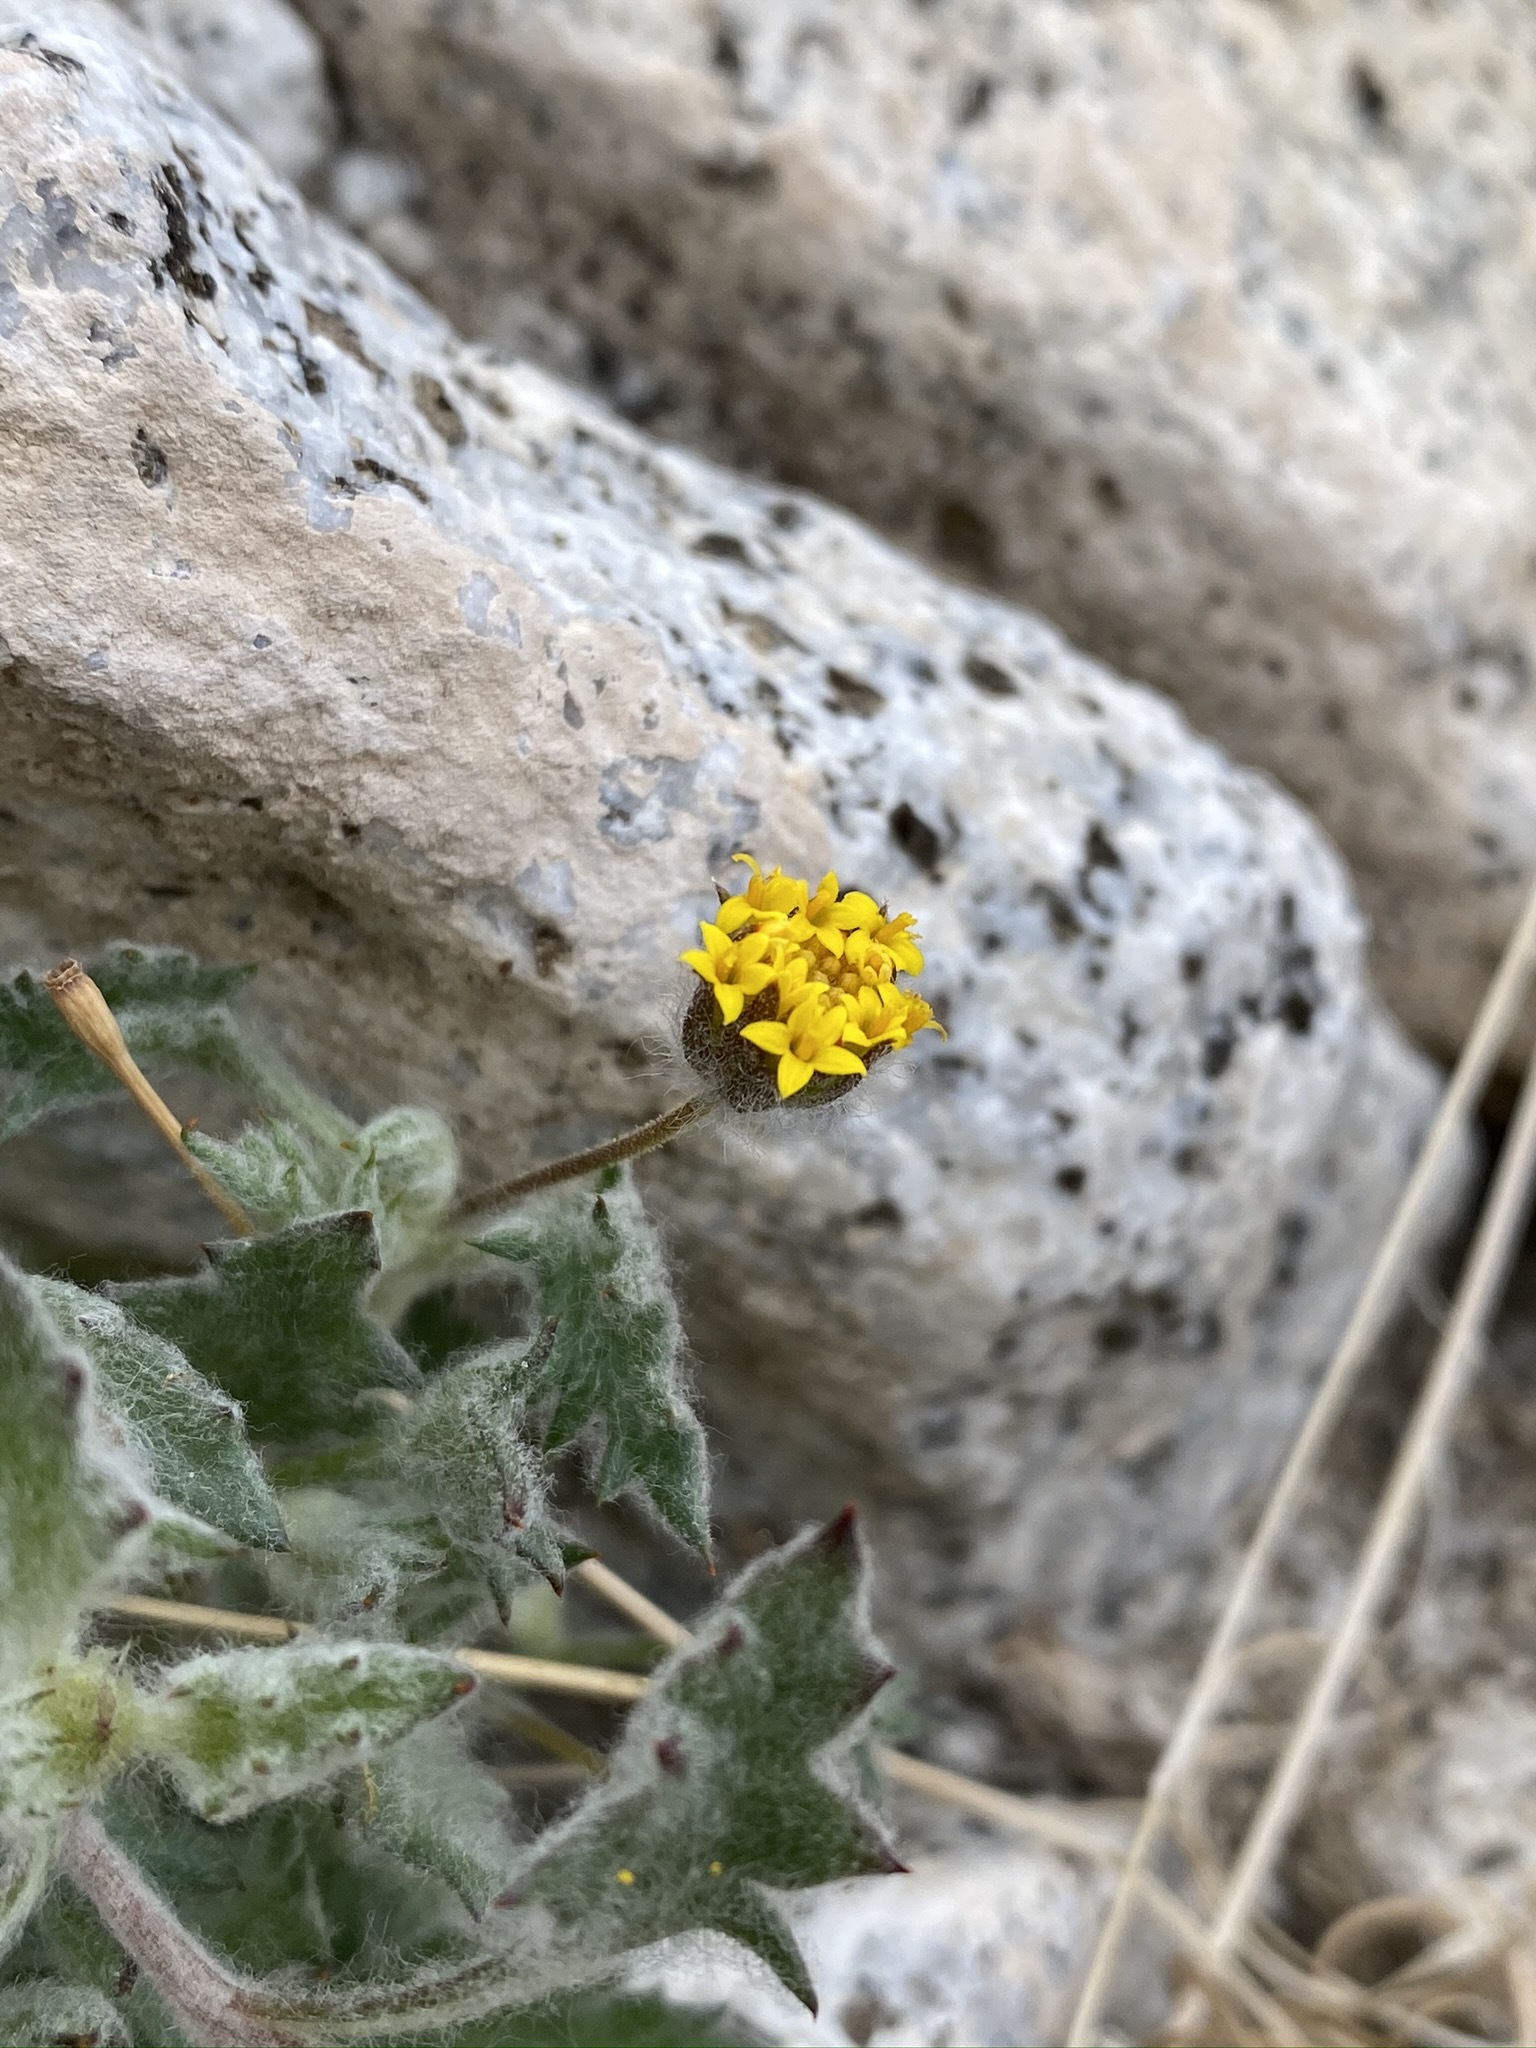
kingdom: Plantae
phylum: Tracheophyta
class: Magnoliopsida
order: Asterales
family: Asteraceae
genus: Trichoptilium
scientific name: Trichoptilium incisum
